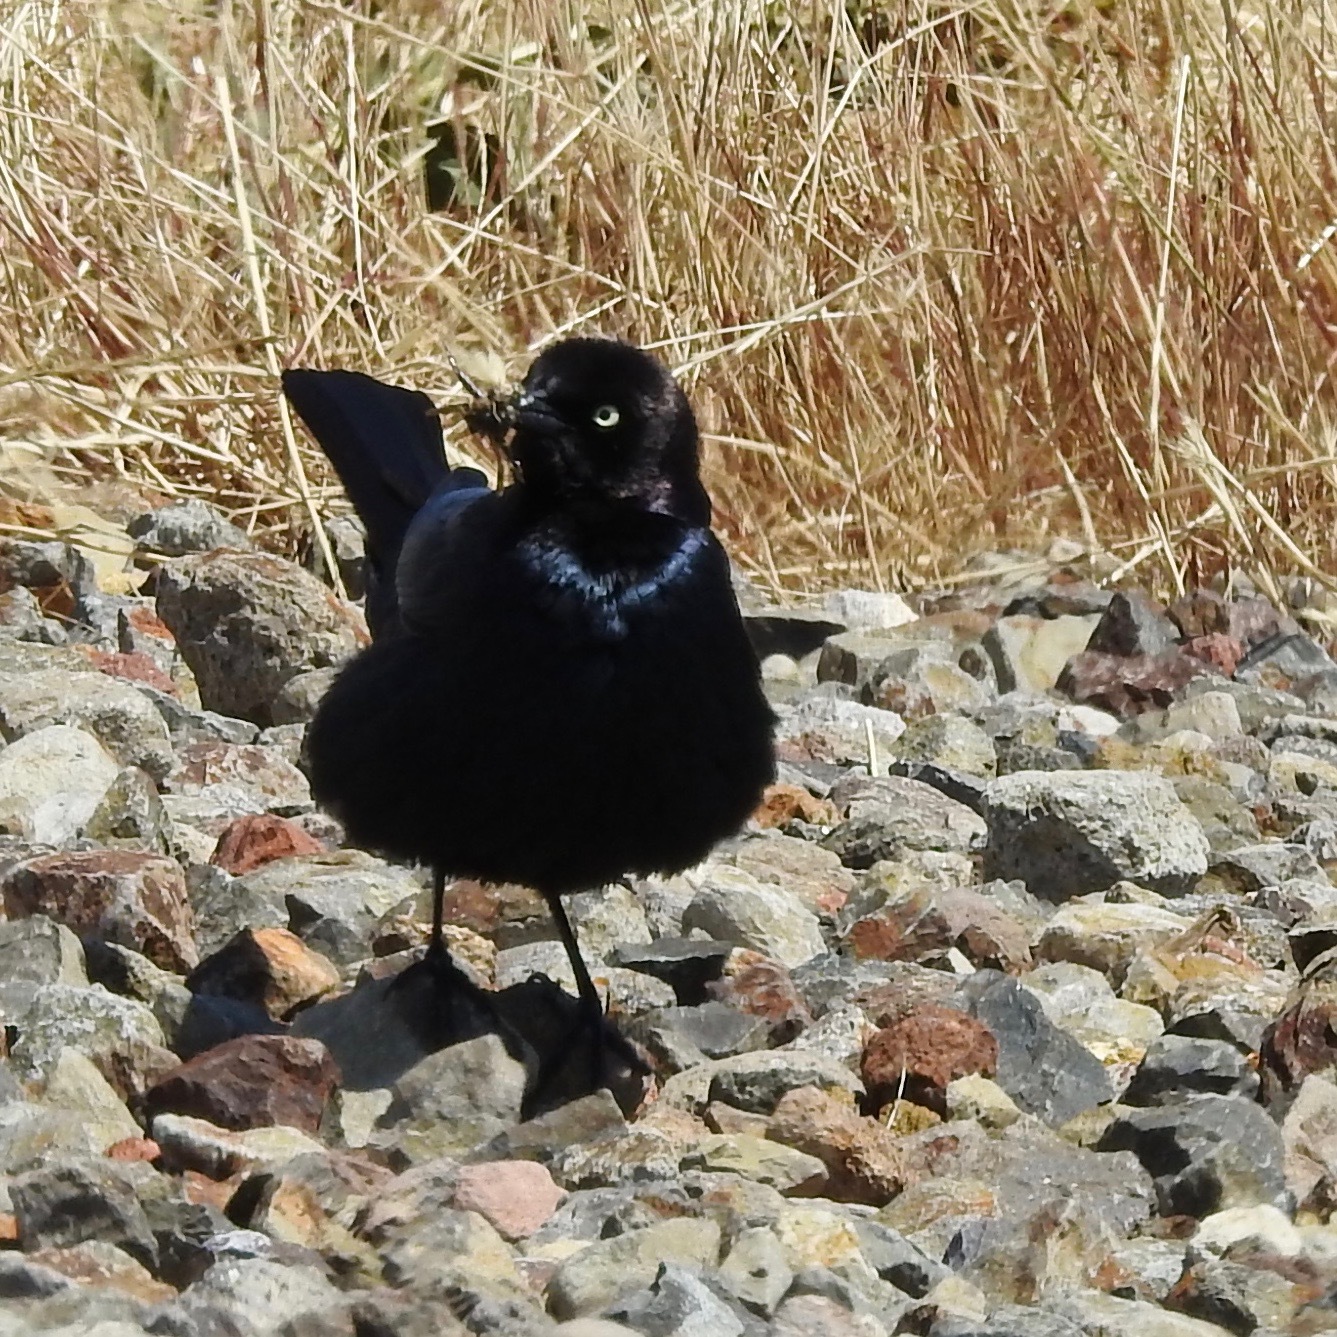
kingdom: Animalia
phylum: Chordata
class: Aves
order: Passeriformes
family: Icteridae
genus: Euphagus
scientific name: Euphagus cyanocephalus
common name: Brewer's blackbird
